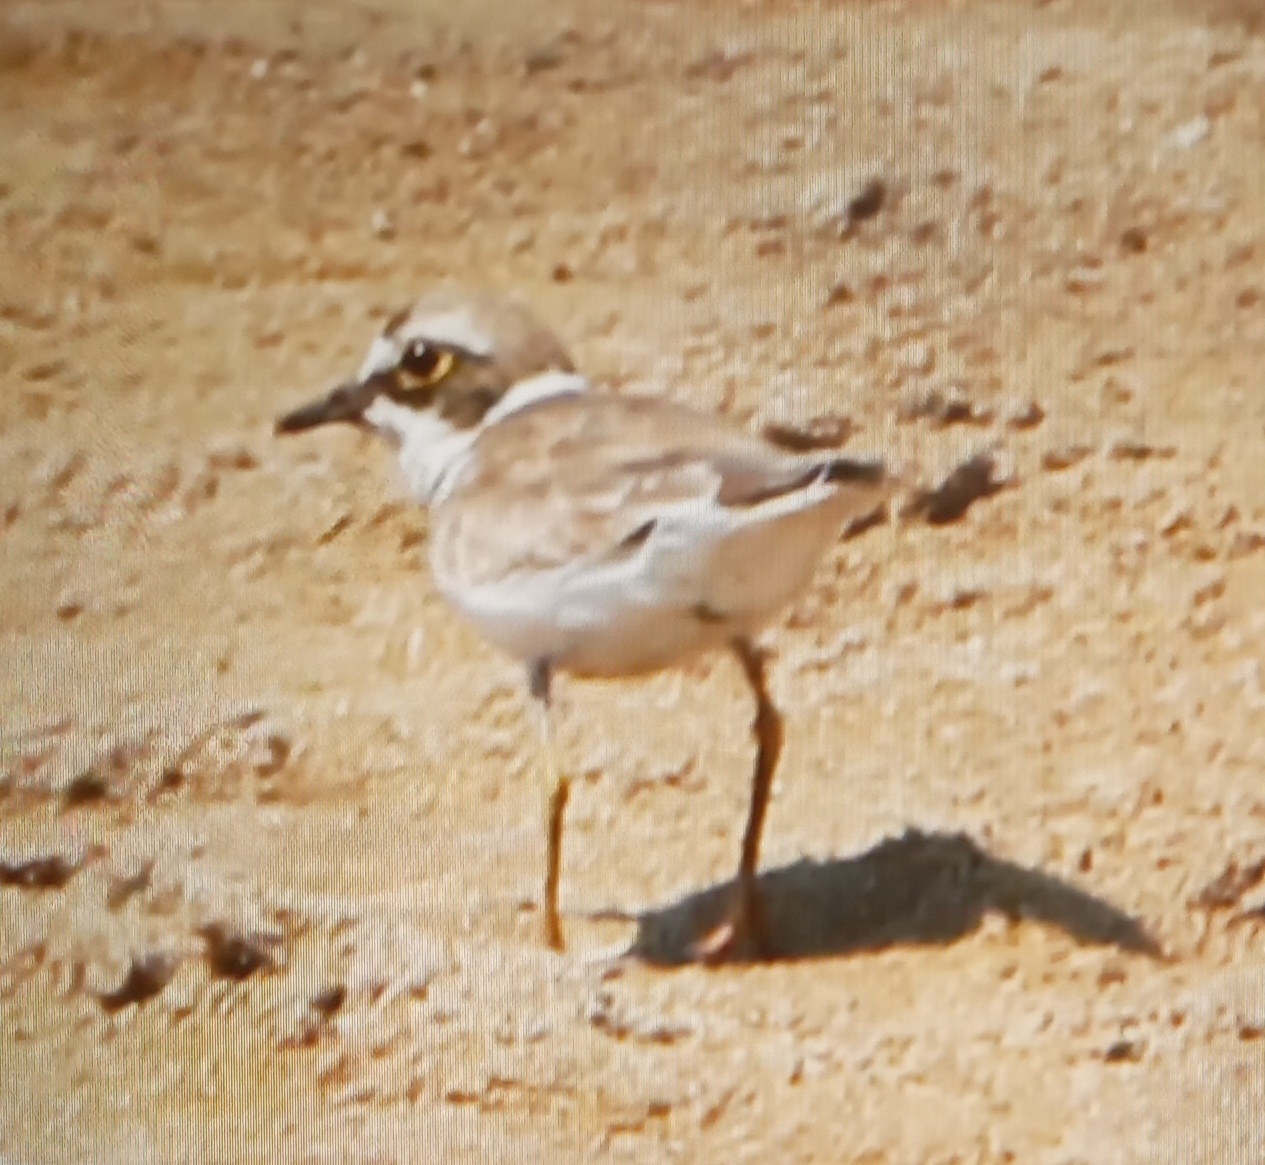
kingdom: Animalia
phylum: Chordata
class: Aves
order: Charadriiformes
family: Charadriidae
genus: Charadrius
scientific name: Charadrius dubius
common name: Little ringed plover
